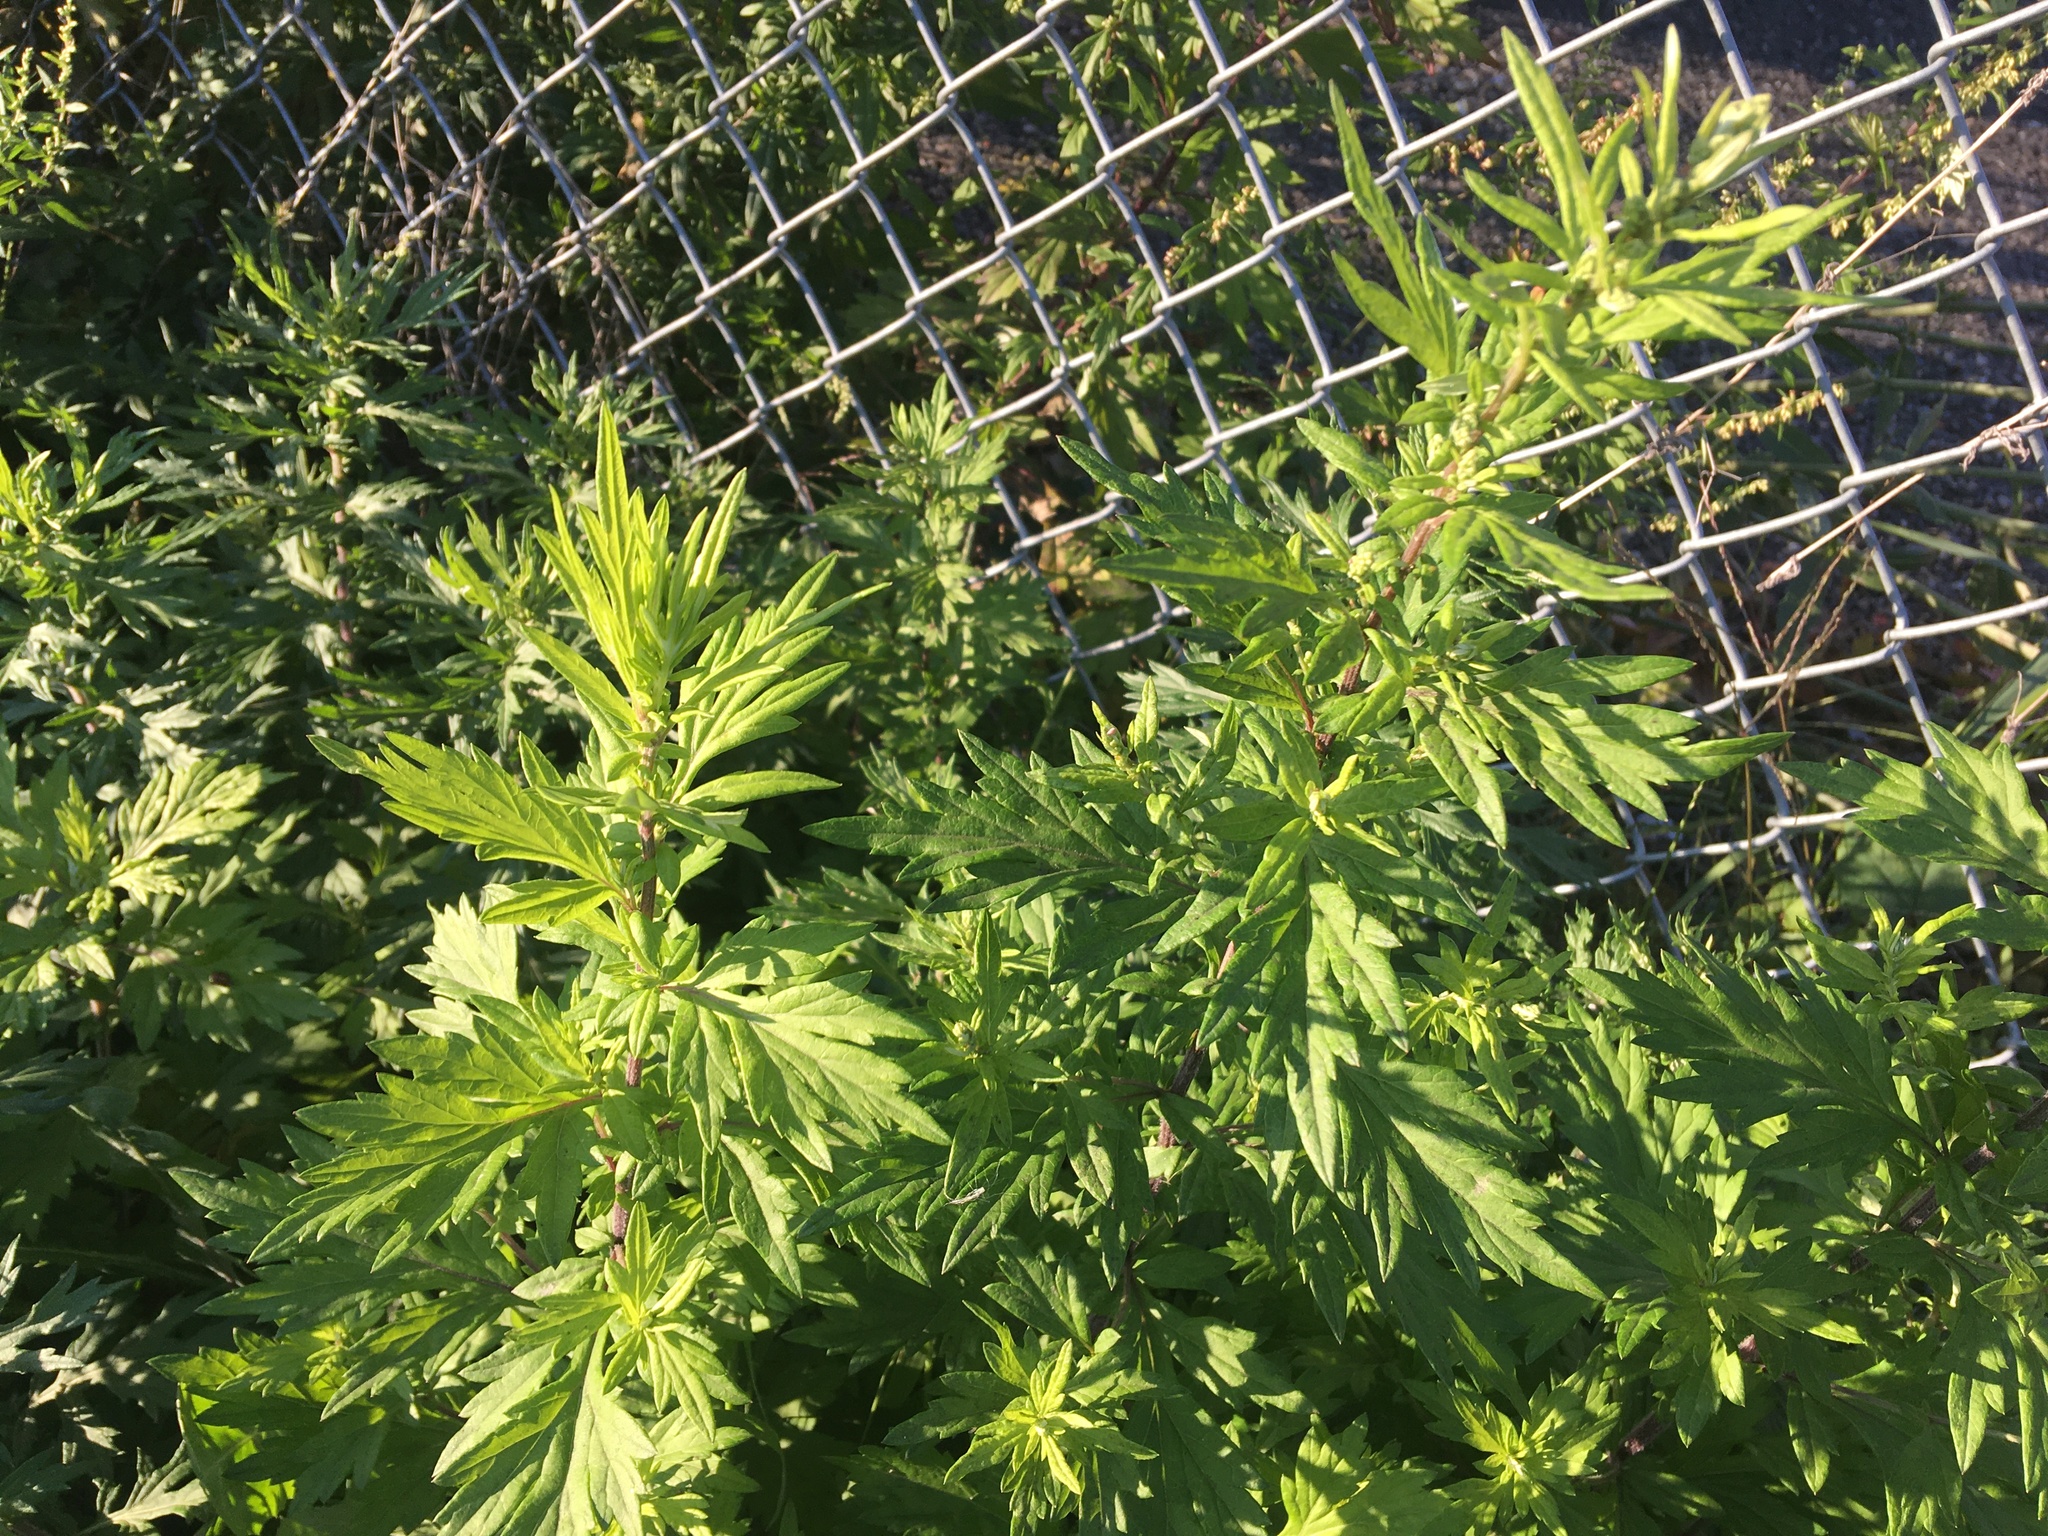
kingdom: Plantae
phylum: Tracheophyta
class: Magnoliopsida
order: Asterales
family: Asteraceae
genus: Artemisia
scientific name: Artemisia vulgaris
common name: Mugwort
